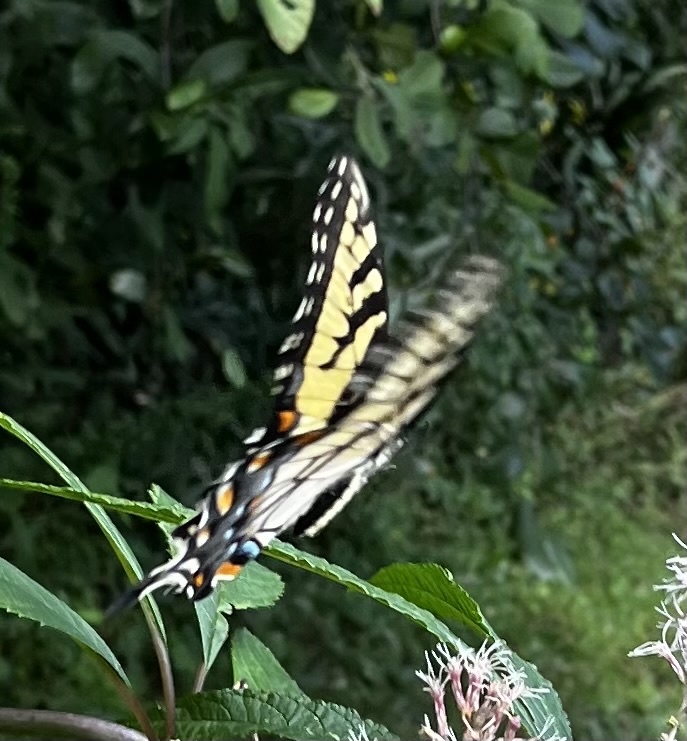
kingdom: Animalia
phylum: Arthropoda
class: Insecta
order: Lepidoptera
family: Papilionidae
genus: Papilio
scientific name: Papilio glaucus
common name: Tiger swallowtail
